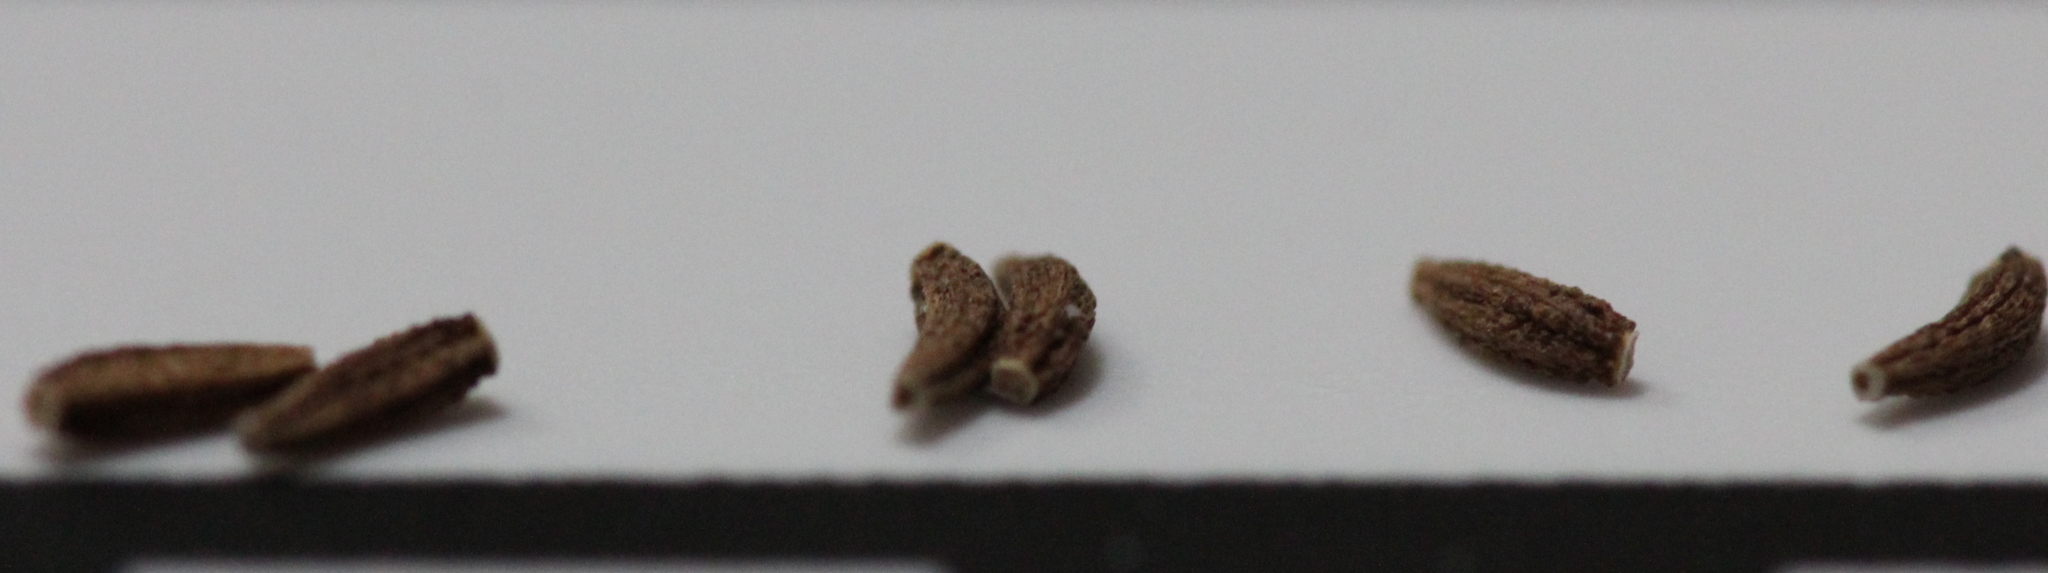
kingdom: Plantae
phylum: Tracheophyta
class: Magnoliopsida
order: Asterales
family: Asteraceae
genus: Stephanomeria
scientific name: Stephanomeria diegensis
